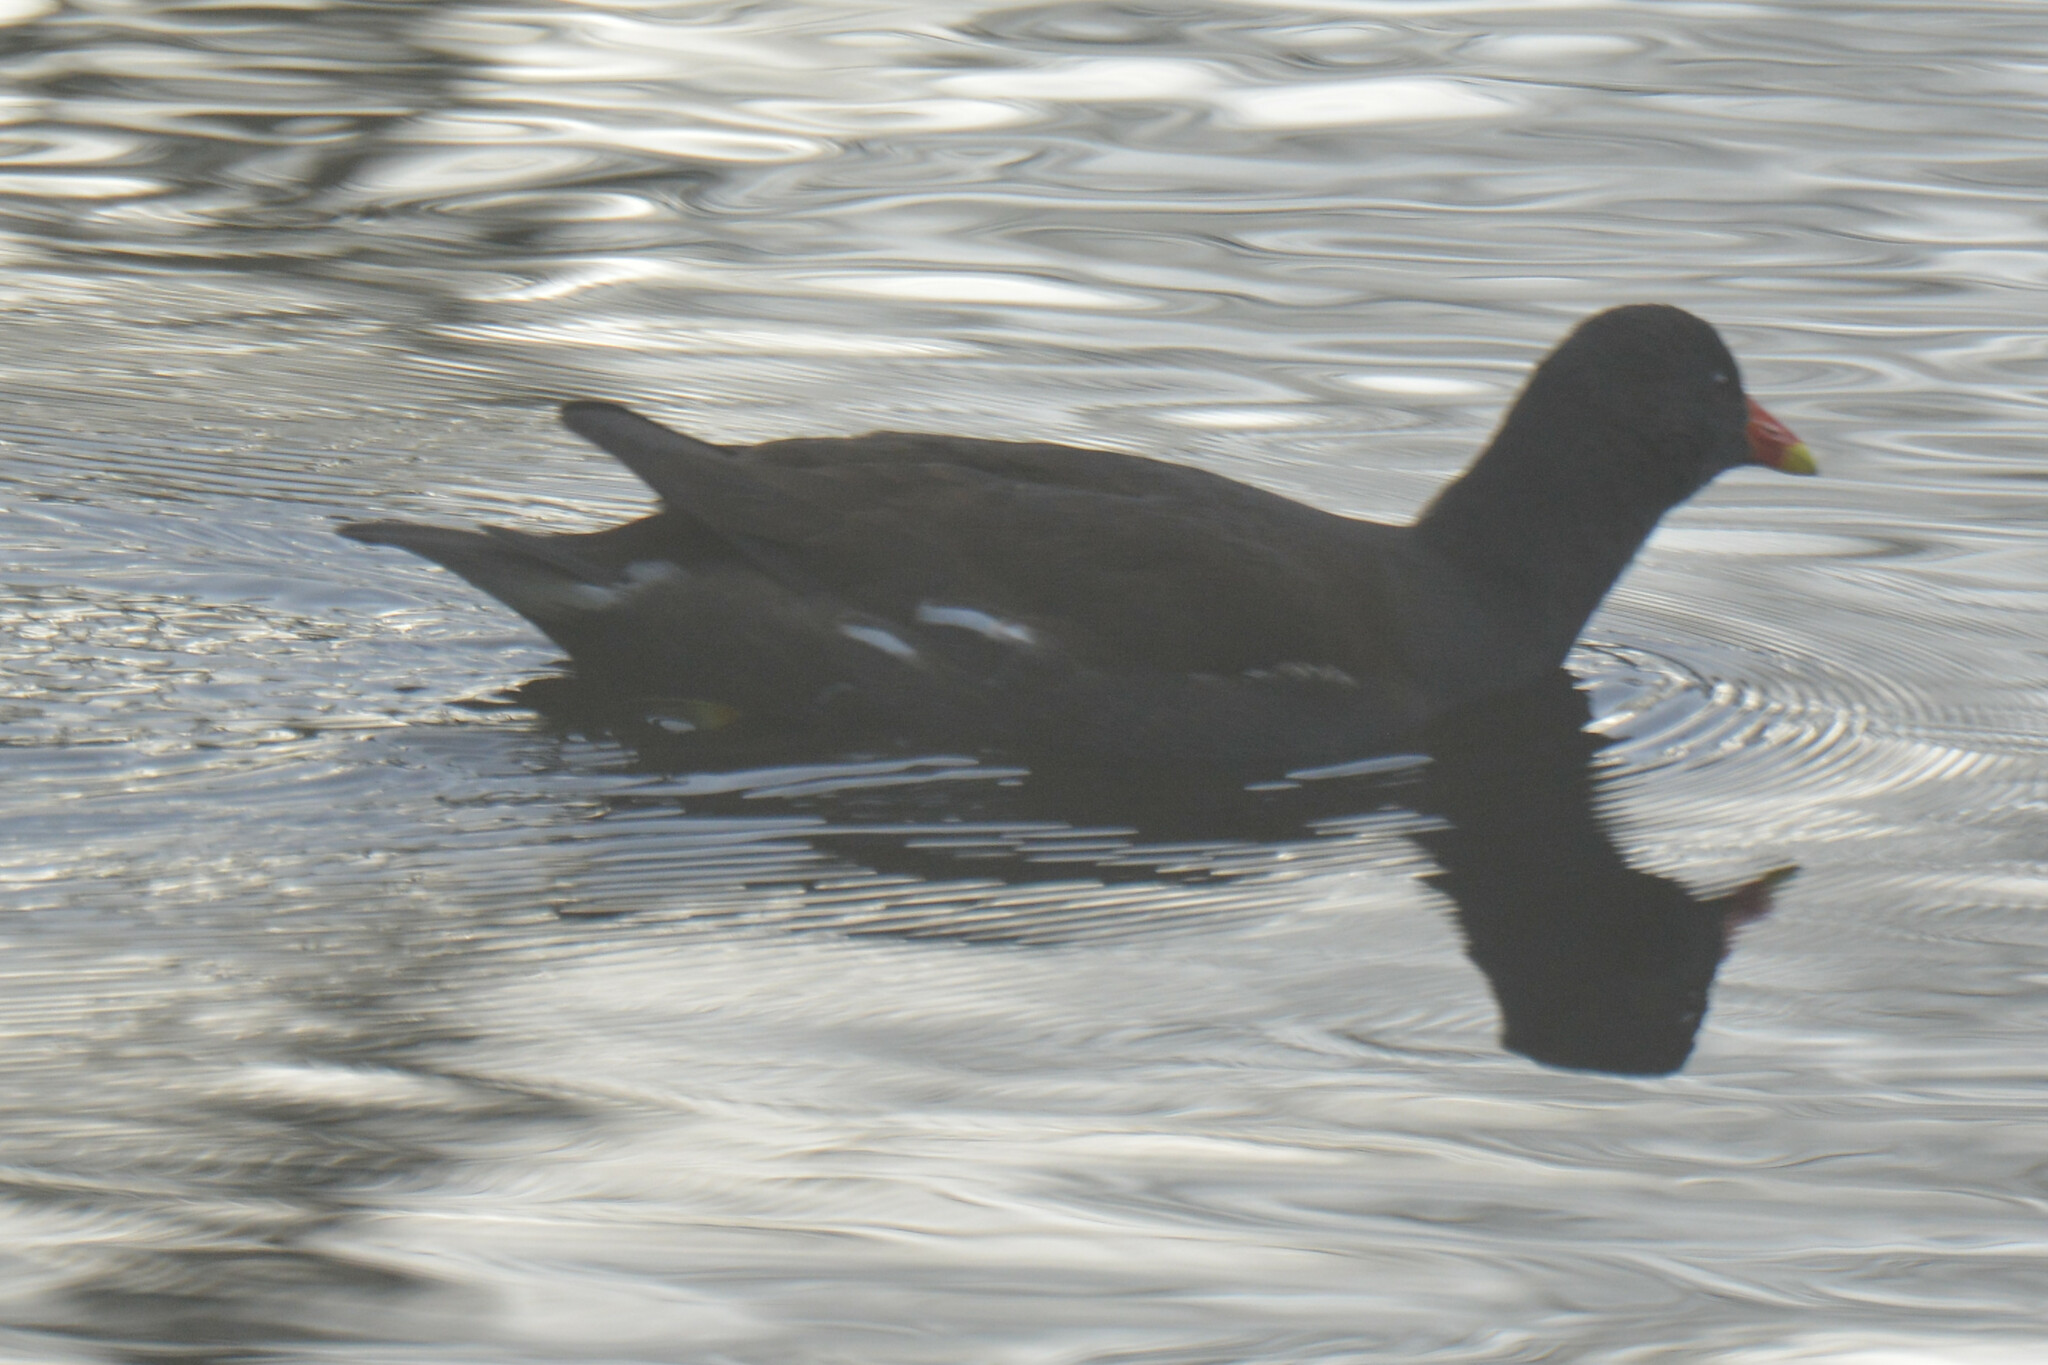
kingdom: Animalia
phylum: Chordata
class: Aves
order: Gruiformes
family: Rallidae
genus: Gallinula
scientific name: Gallinula chloropus
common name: Common moorhen
